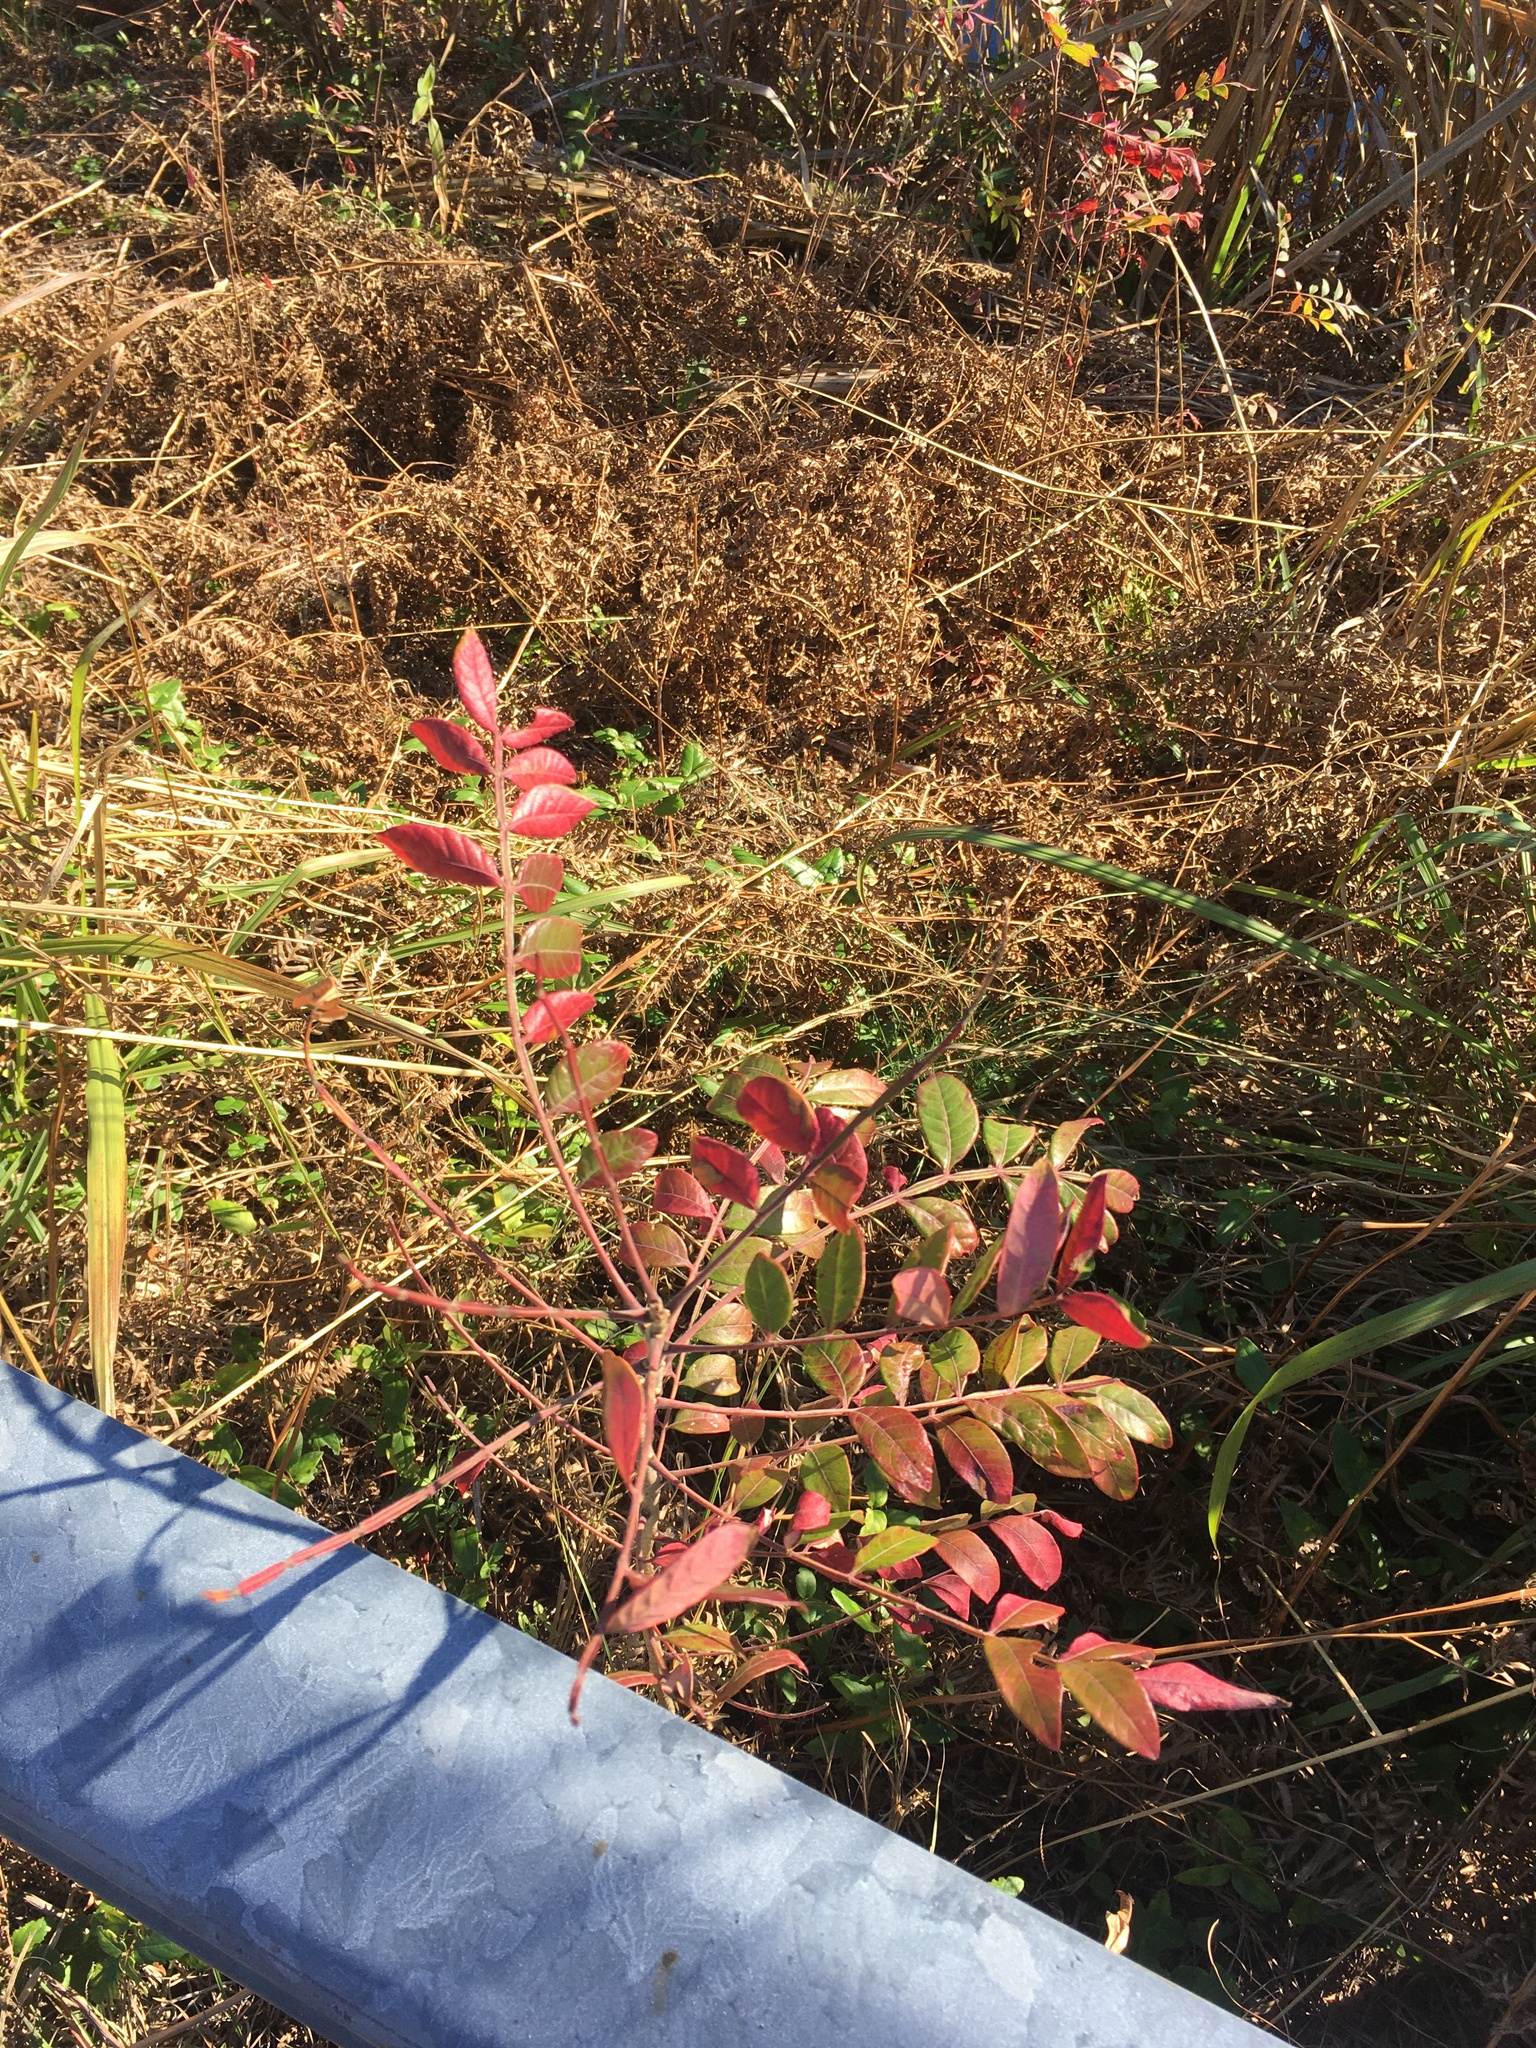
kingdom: Plantae
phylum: Tracheophyta
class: Magnoliopsida
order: Sapindales
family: Anacardiaceae
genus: Rhus
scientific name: Rhus copallina
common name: Shining sumac
